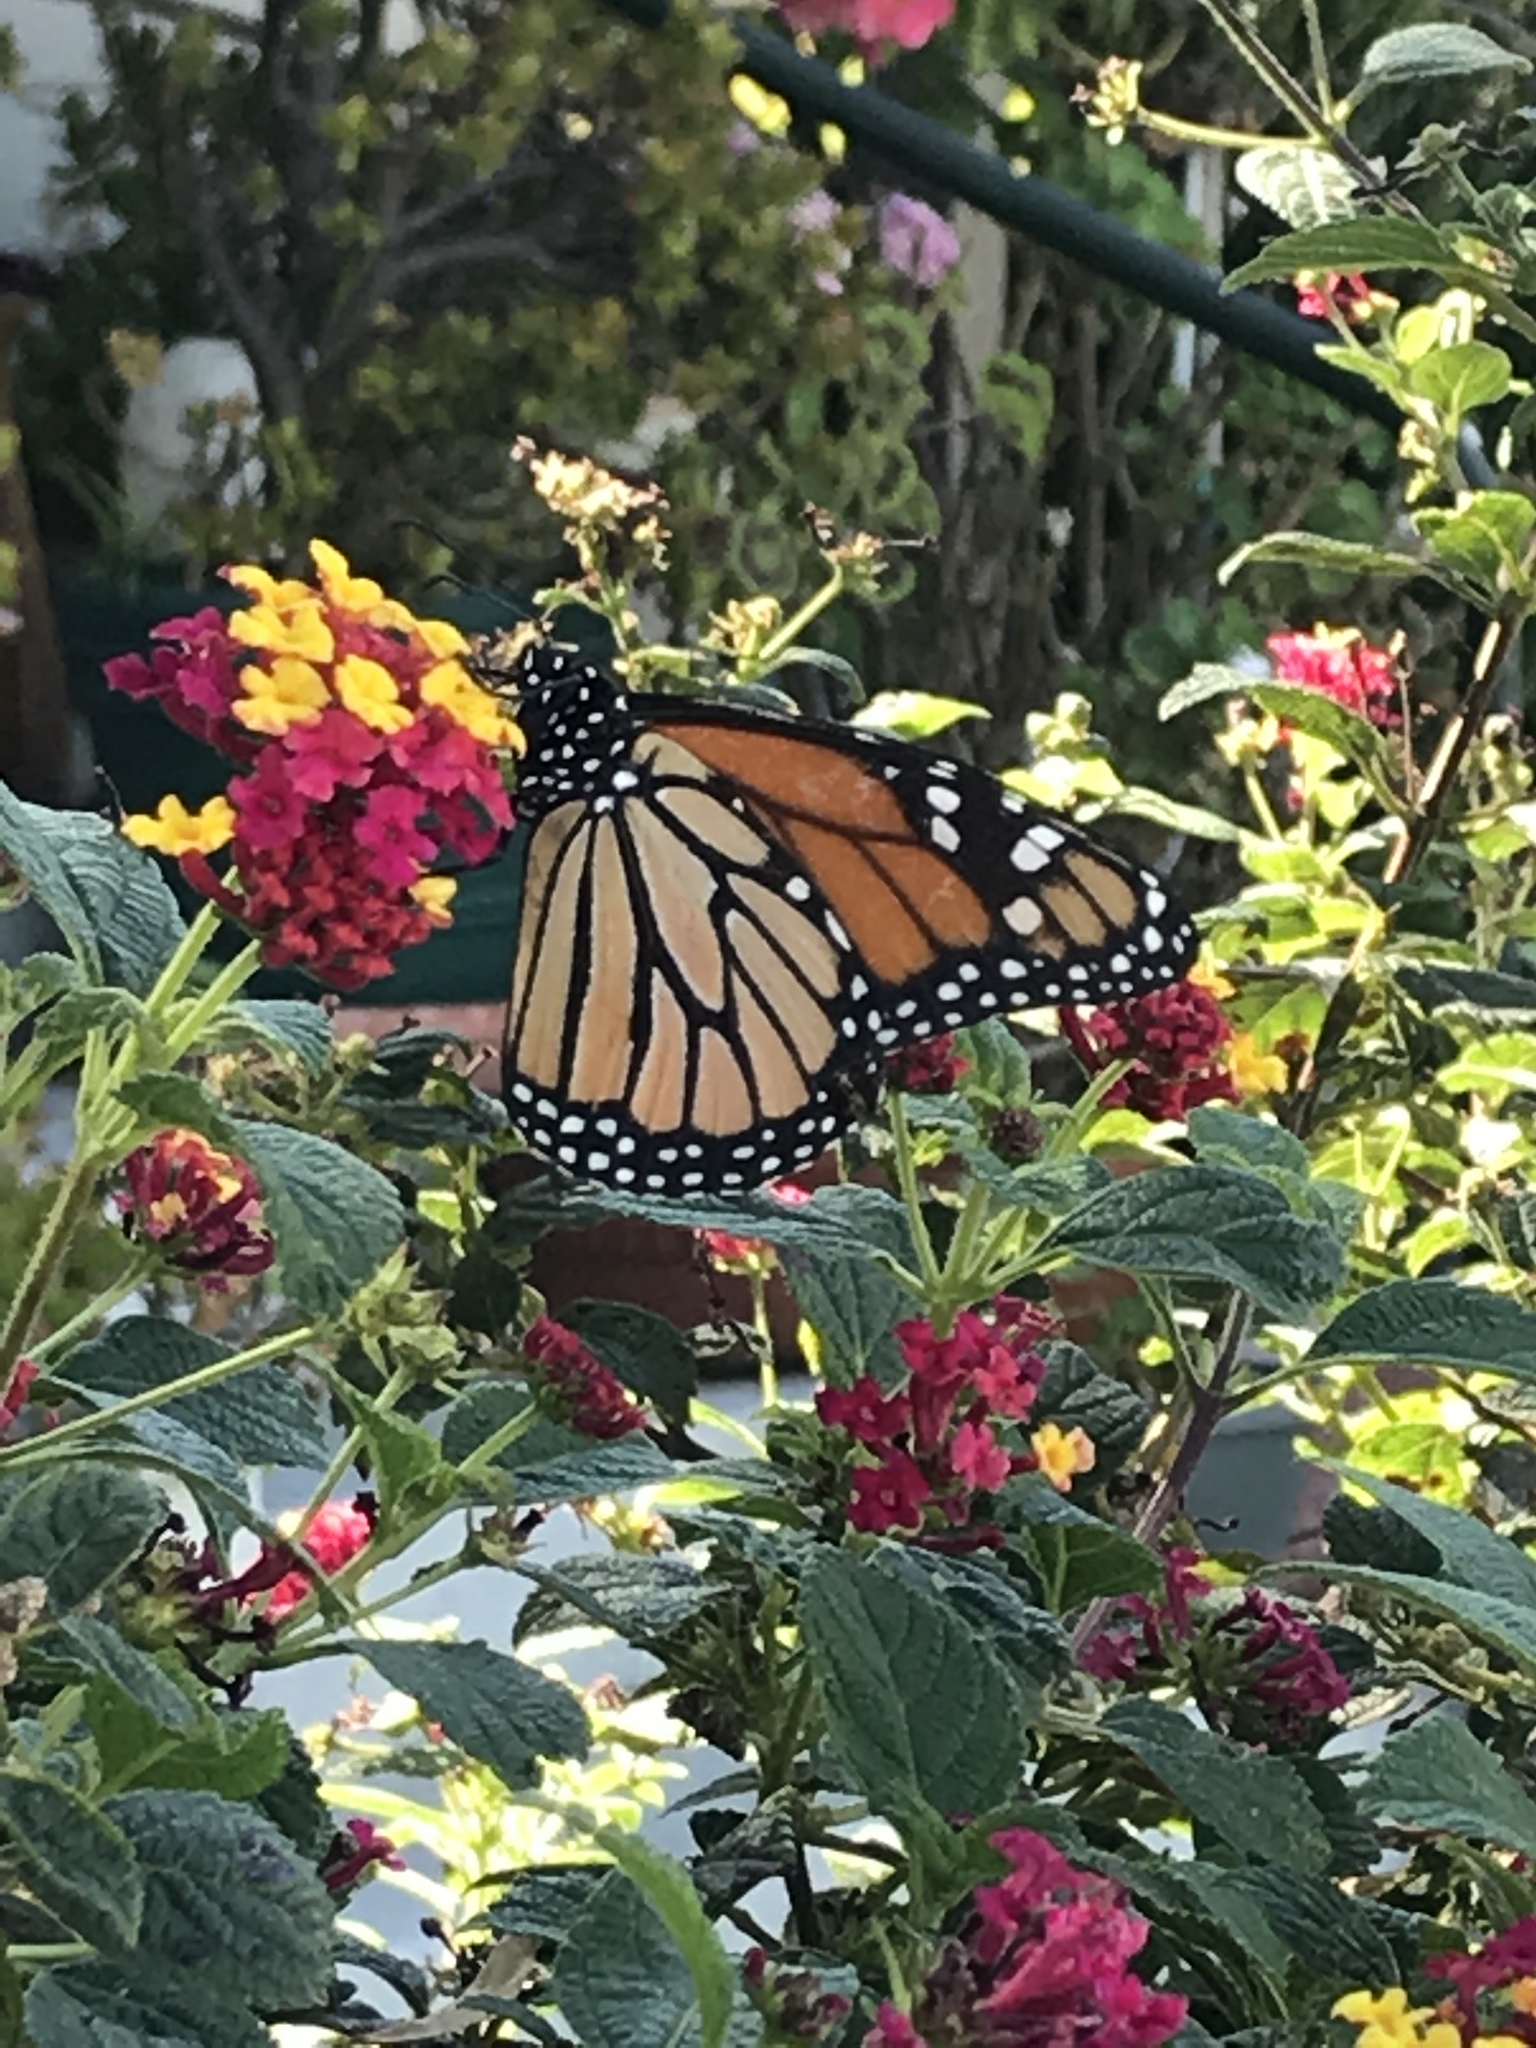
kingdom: Animalia
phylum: Arthropoda
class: Insecta
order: Lepidoptera
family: Nymphalidae
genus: Danaus
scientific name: Danaus plexippus
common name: Monarch
